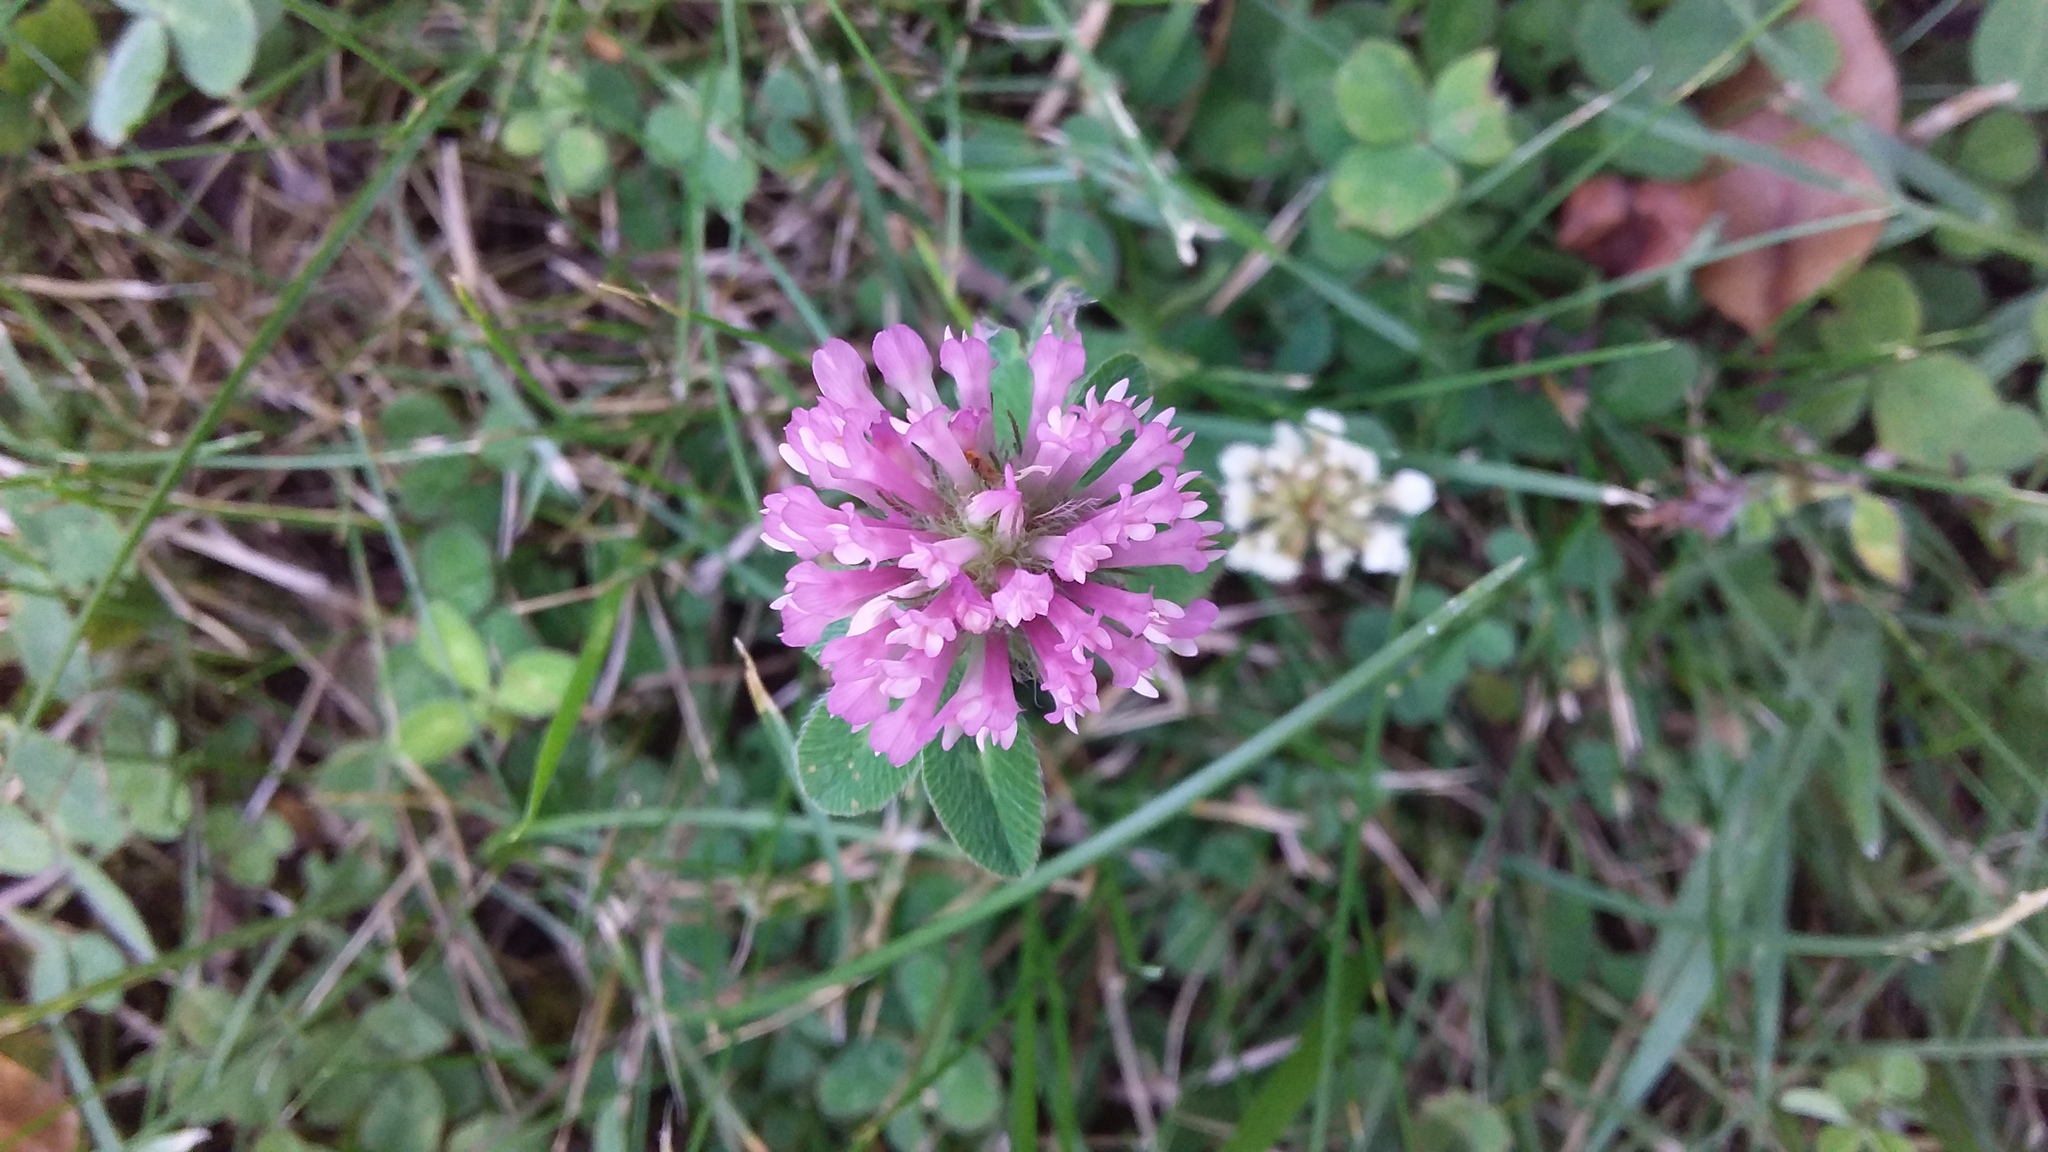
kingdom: Plantae
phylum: Tracheophyta
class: Magnoliopsida
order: Fabales
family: Fabaceae
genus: Trifolium
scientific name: Trifolium pratense
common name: Red clover
